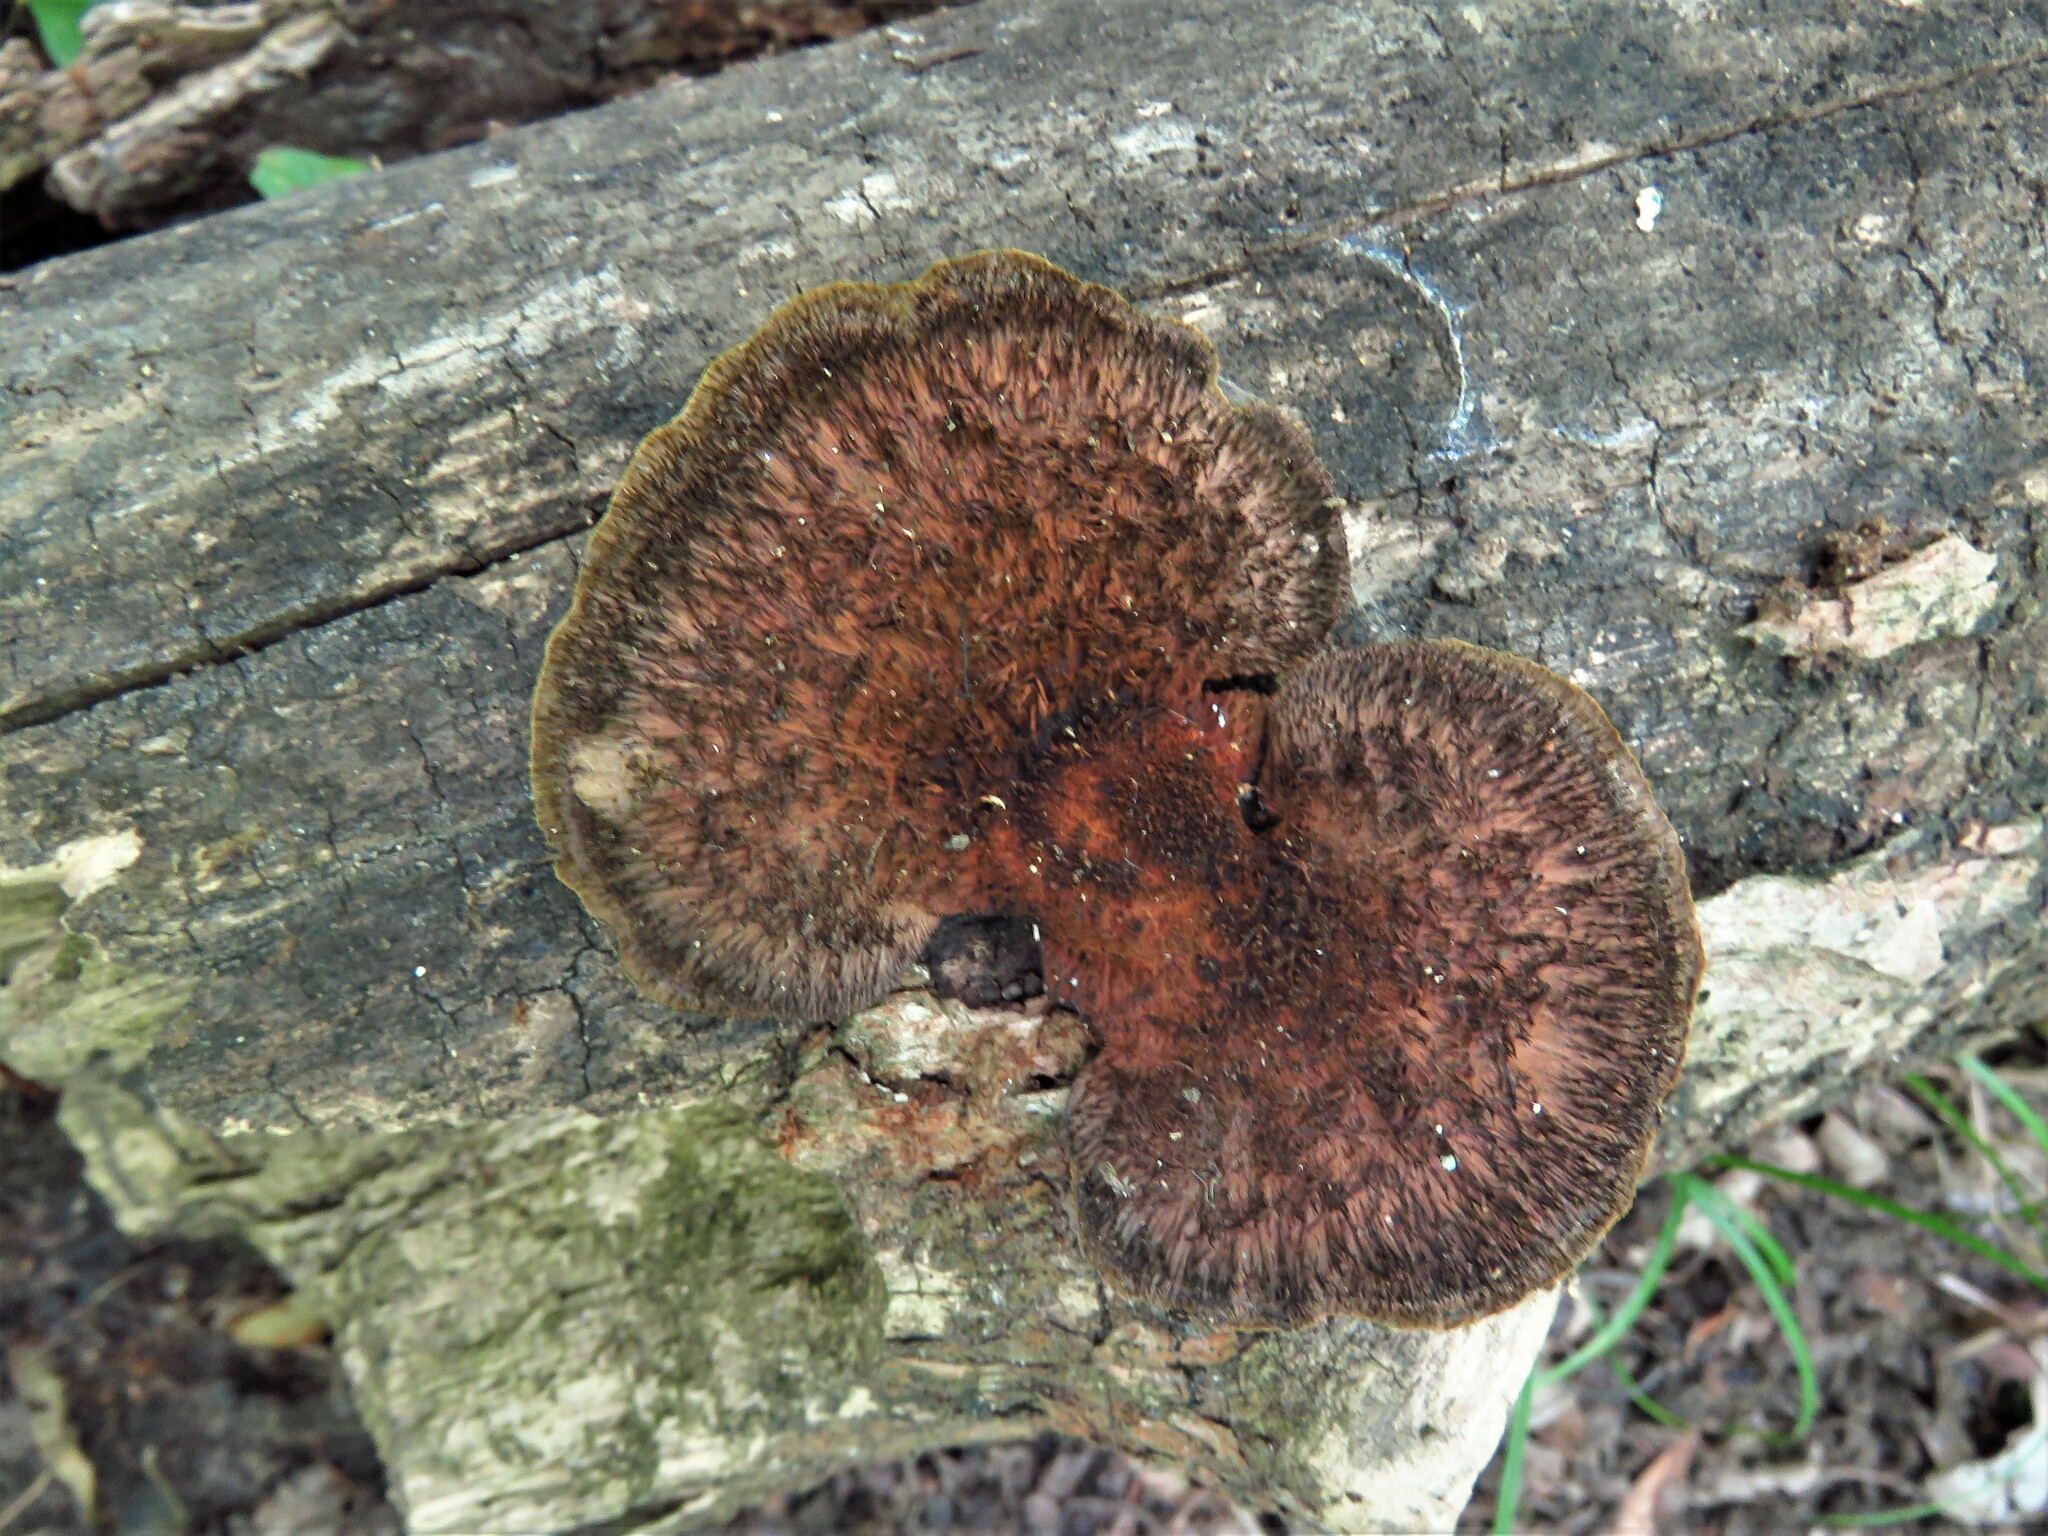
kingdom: Fungi
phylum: Basidiomycota
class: Agaricomycetes
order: Polyporales
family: Cerrenaceae
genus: Cerrena
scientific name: Cerrena hydnoides
